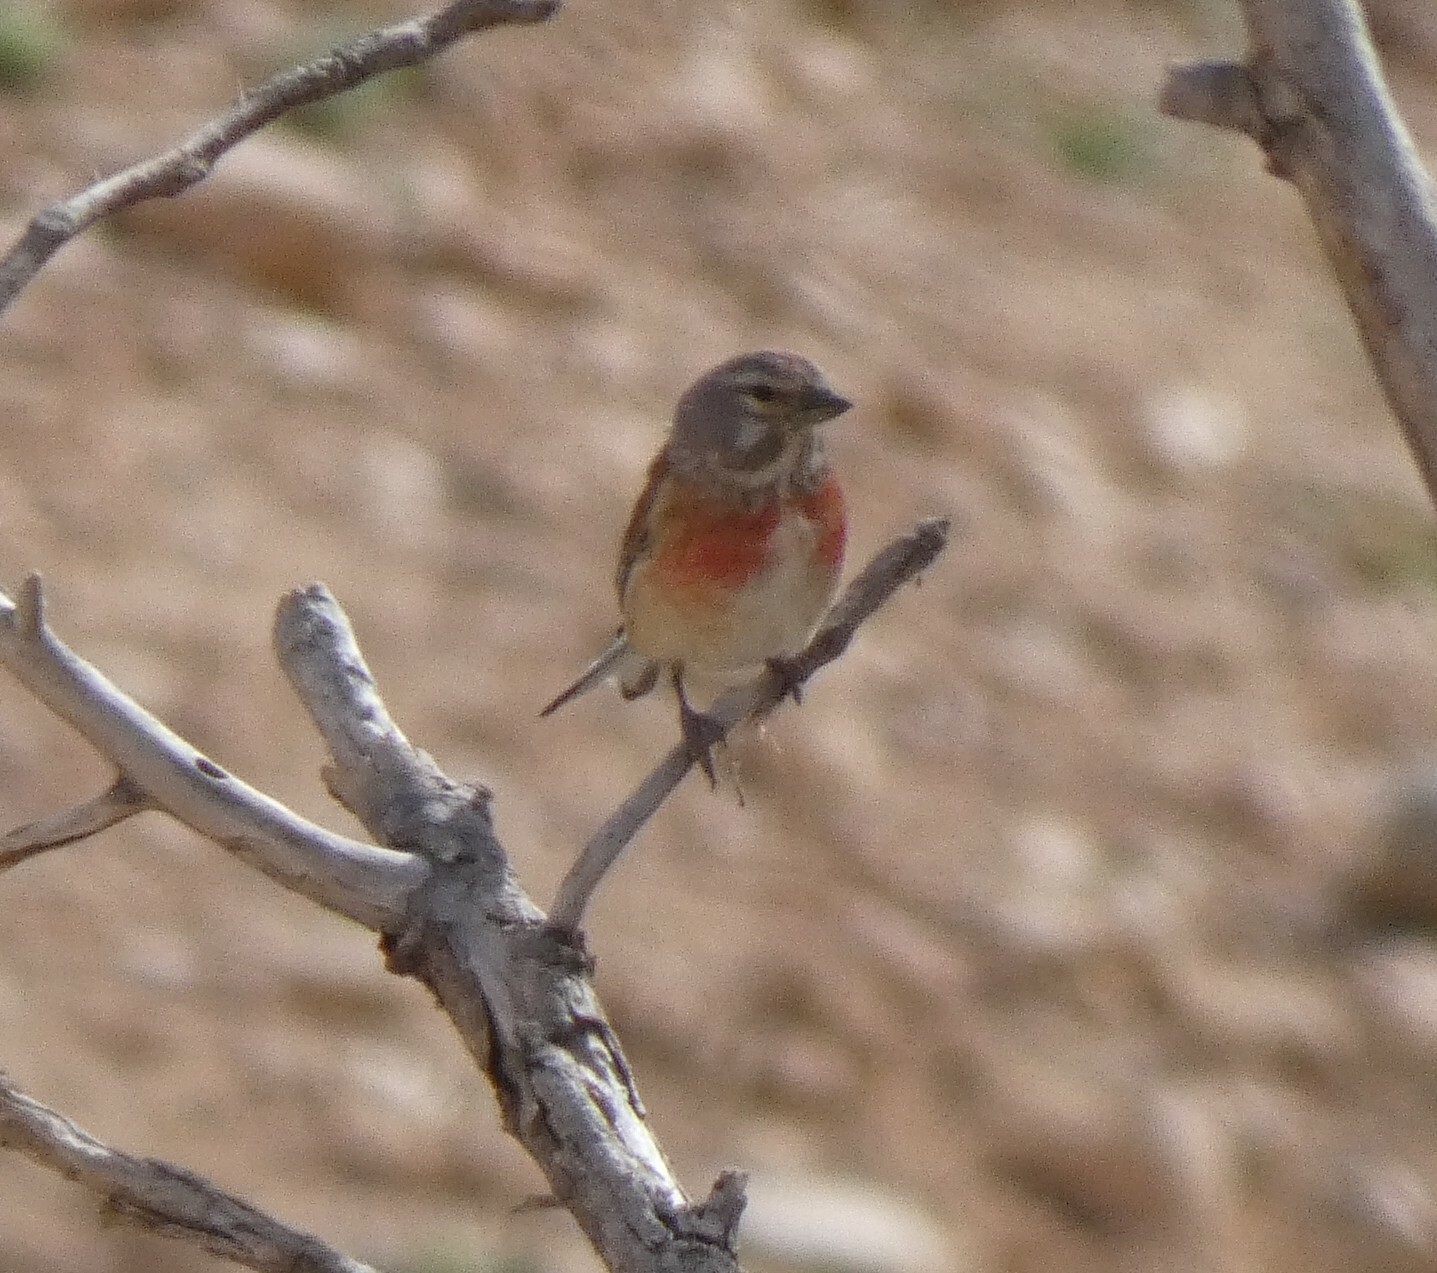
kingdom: Animalia
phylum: Chordata
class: Aves
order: Passeriformes
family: Fringillidae
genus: Linaria
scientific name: Linaria cannabina
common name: Common linnet
